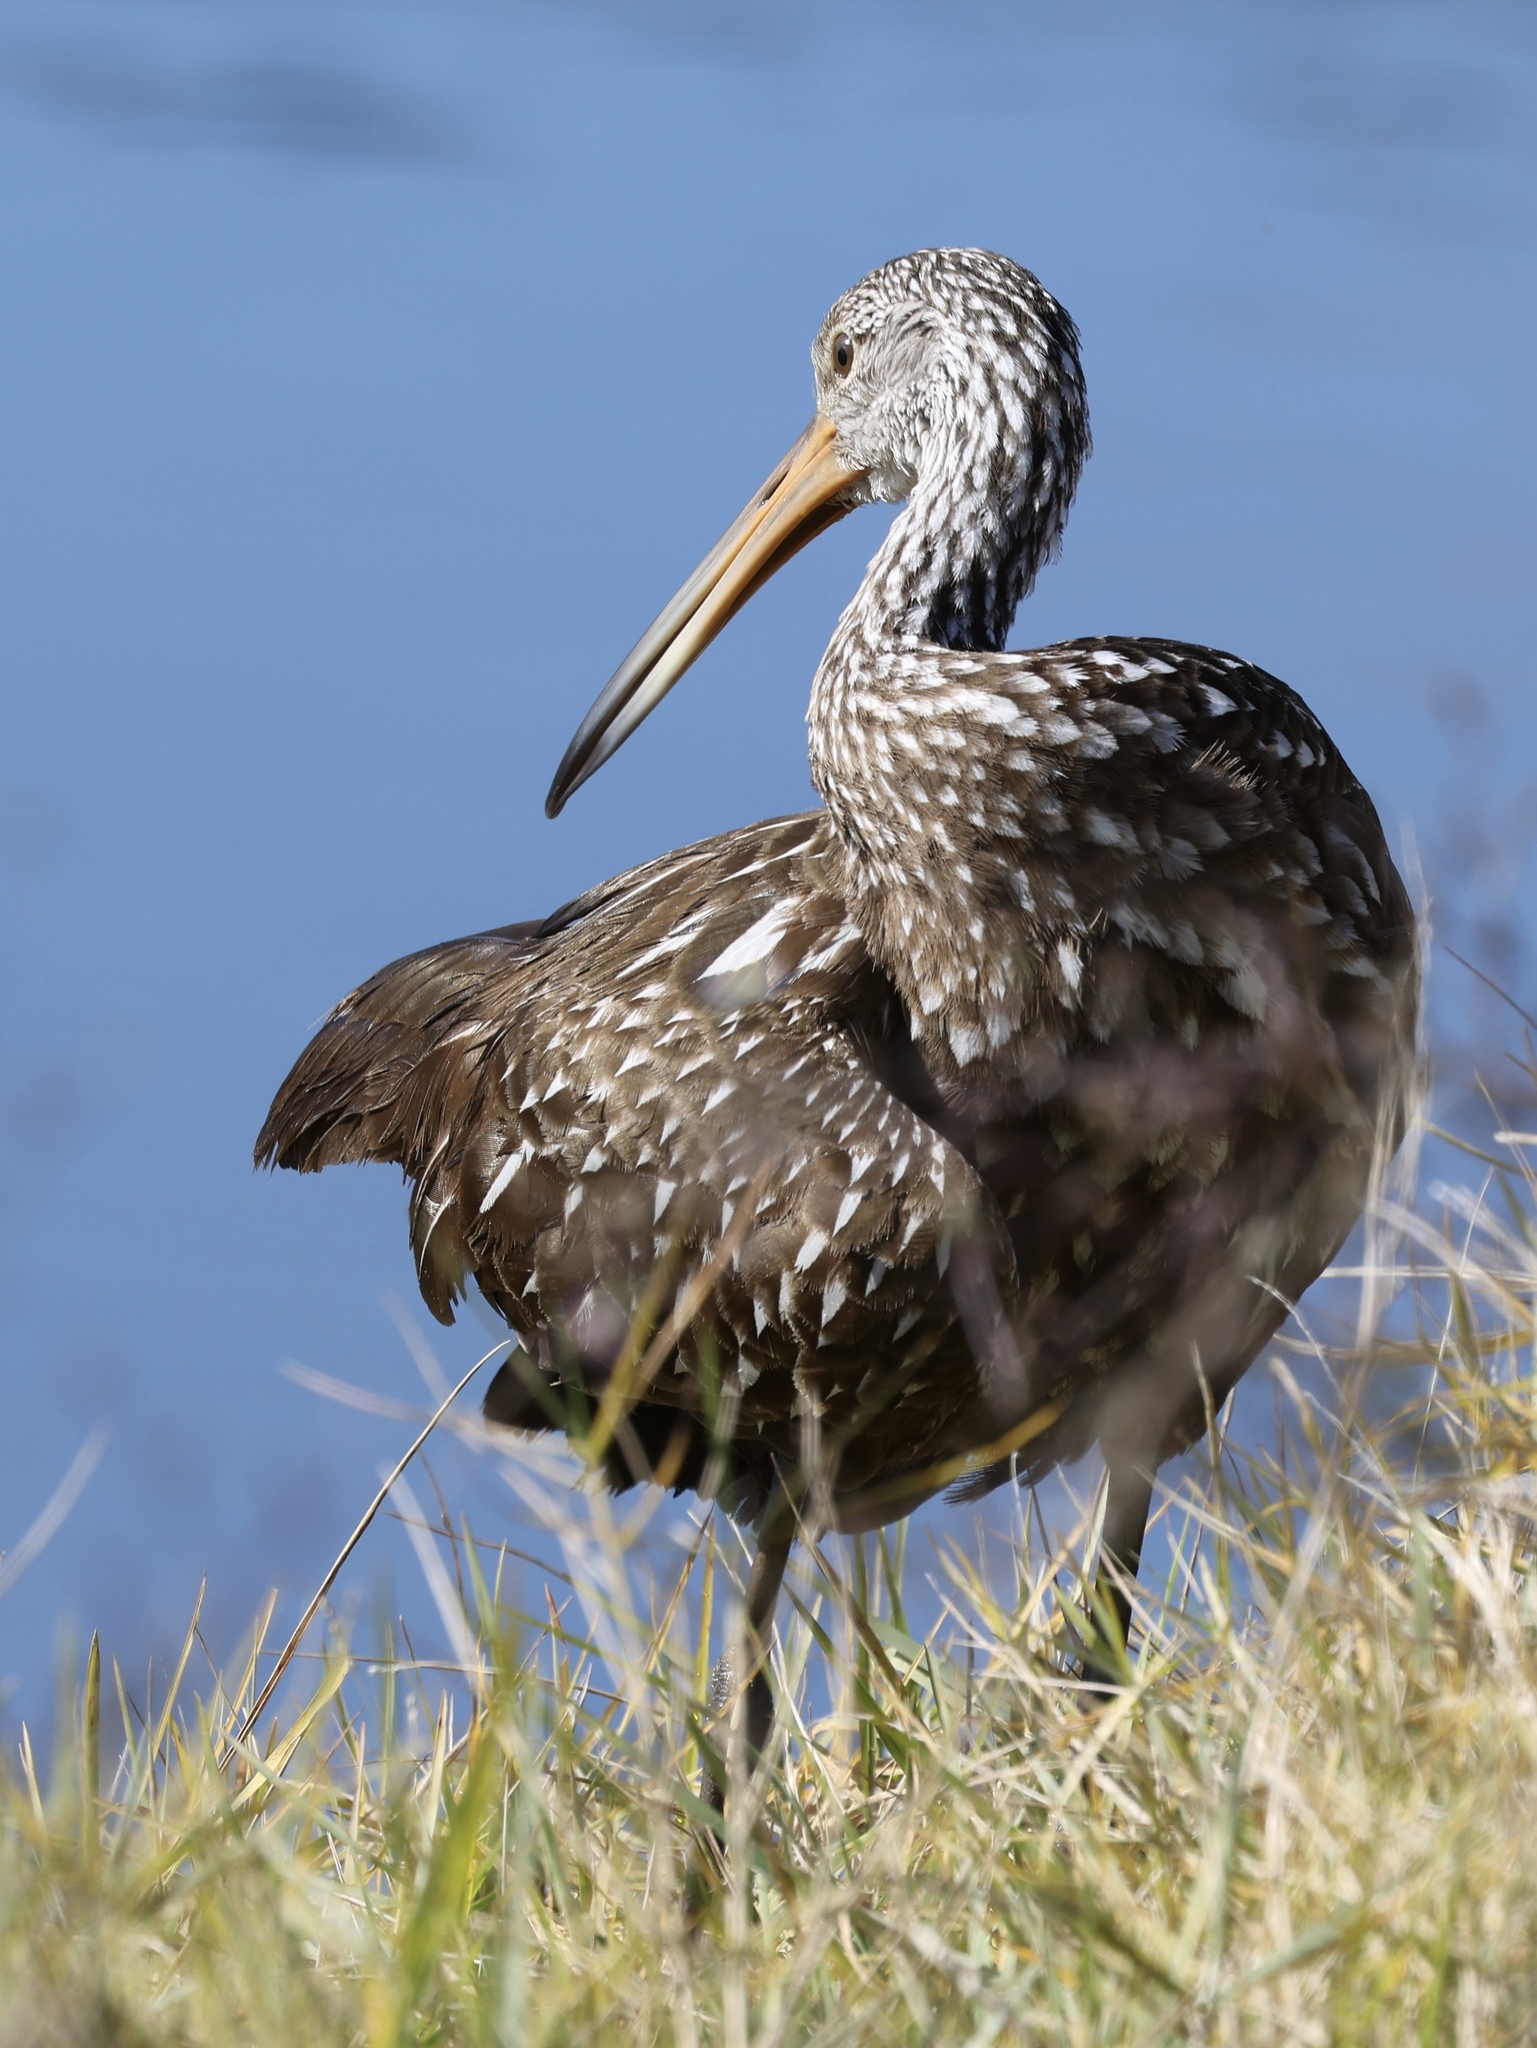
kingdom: Animalia
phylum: Chordata
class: Aves
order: Gruiformes
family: Aramidae
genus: Aramus
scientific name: Aramus guarauna
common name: Limpkin
